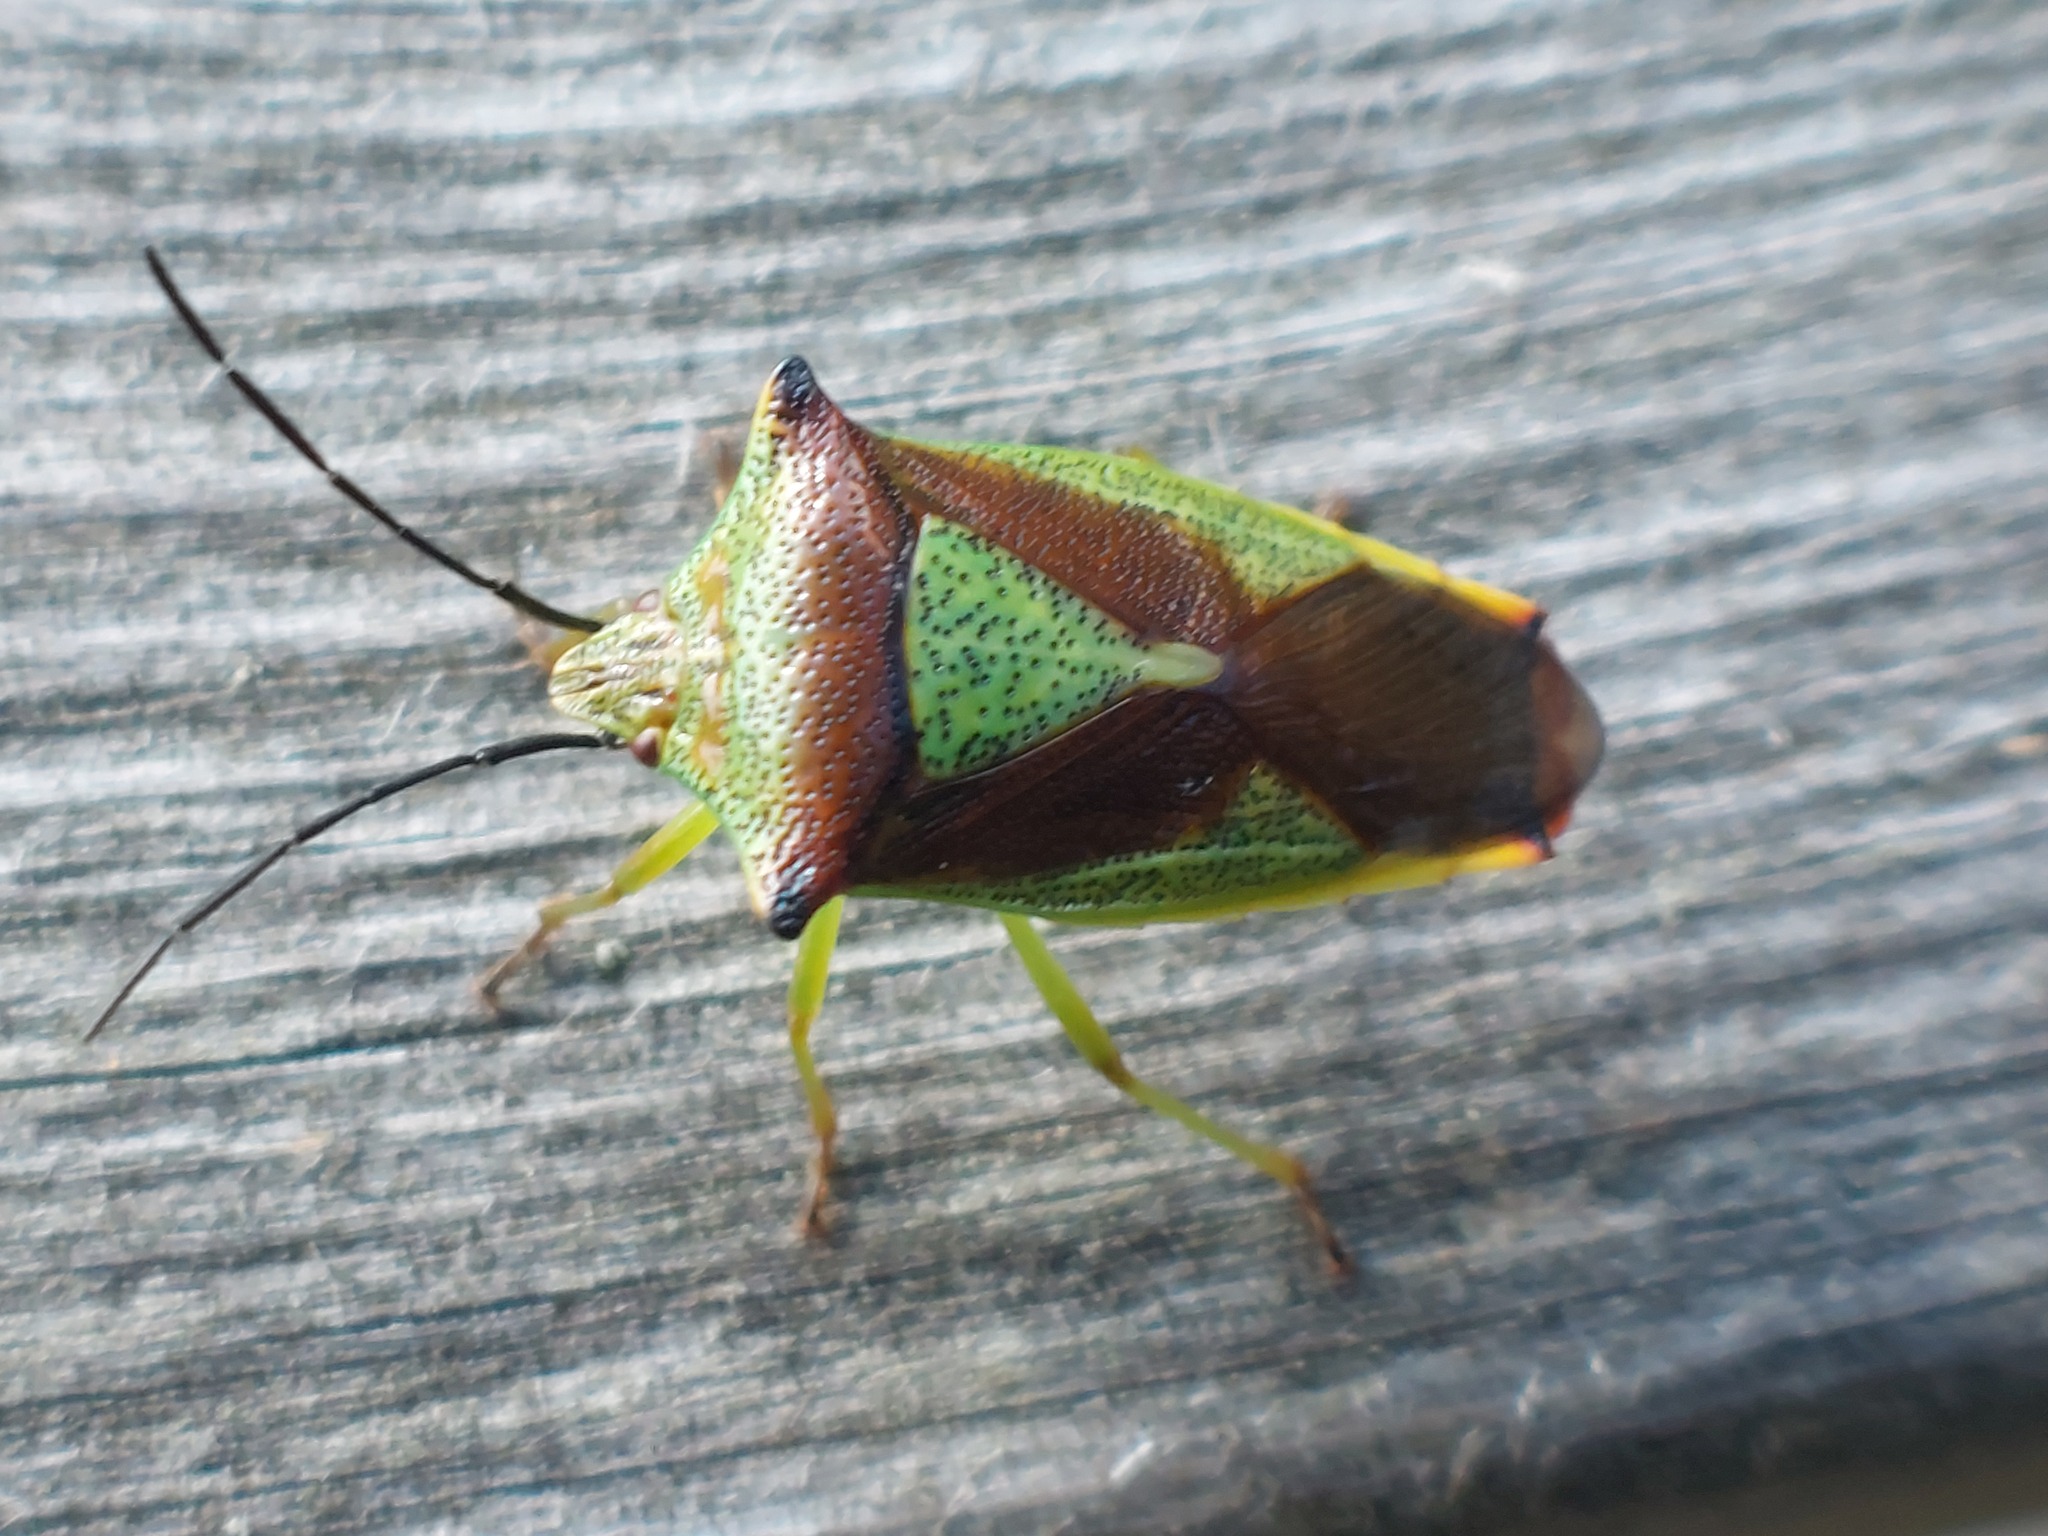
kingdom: Animalia
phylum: Arthropoda
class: Insecta
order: Hemiptera
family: Acanthosomatidae
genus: Acanthosoma
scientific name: Acanthosoma haemorrhoidale
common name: Hawthorn shieldbug
